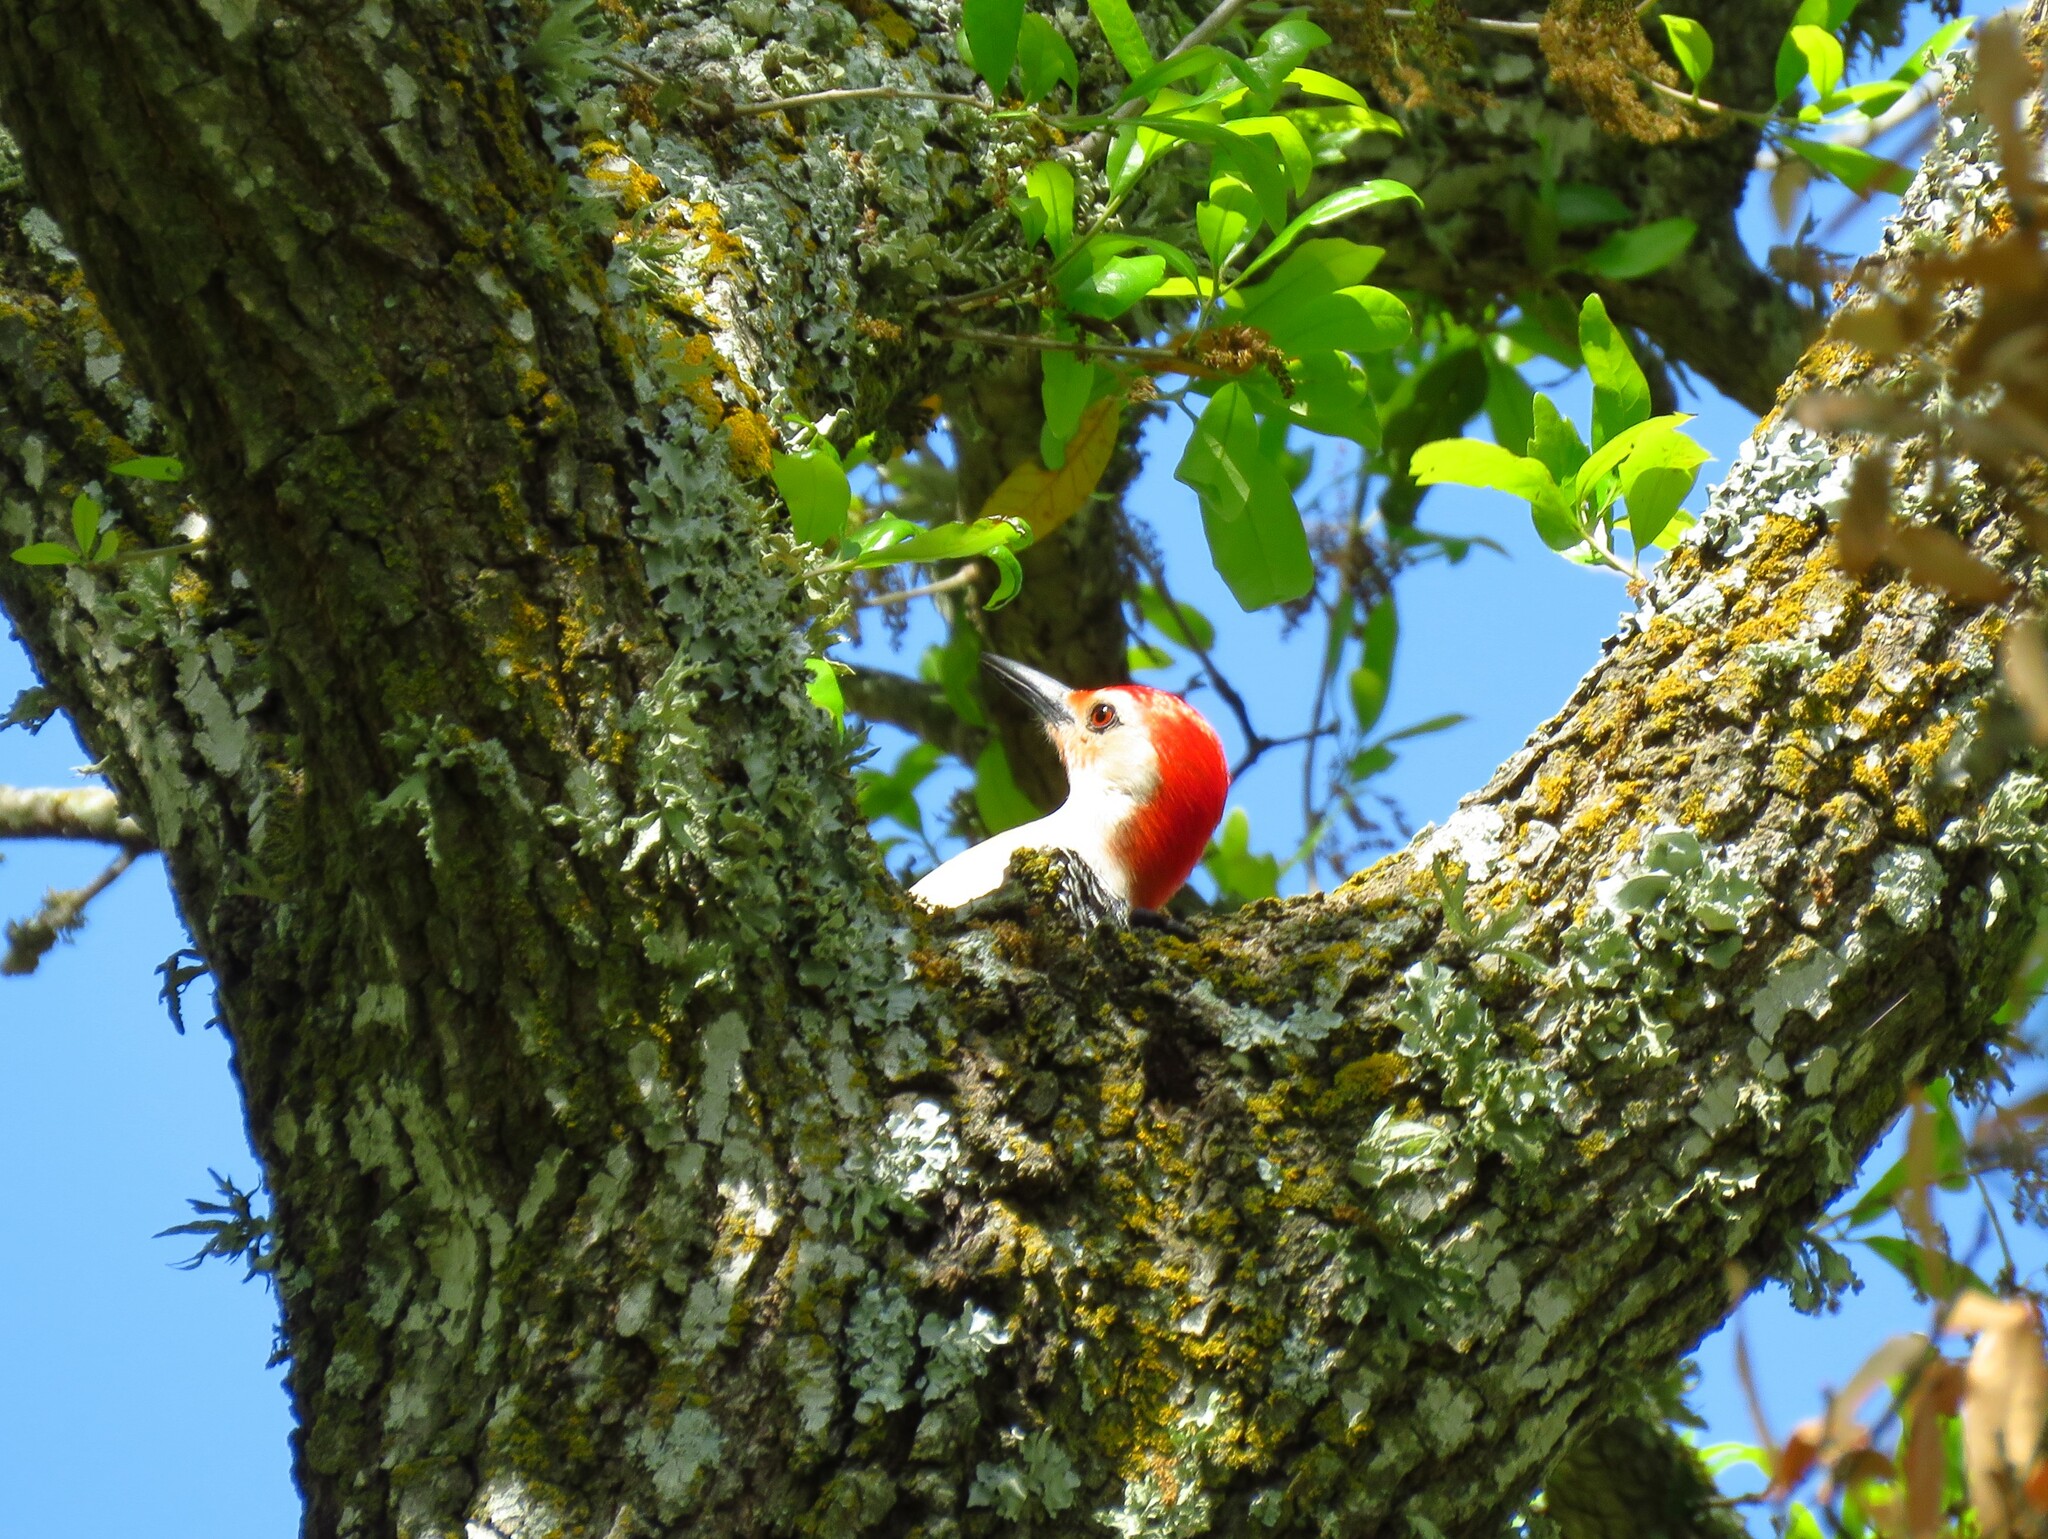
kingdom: Animalia
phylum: Chordata
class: Aves
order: Piciformes
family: Picidae
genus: Melanerpes
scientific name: Melanerpes carolinus
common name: Red-bellied woodpecker
